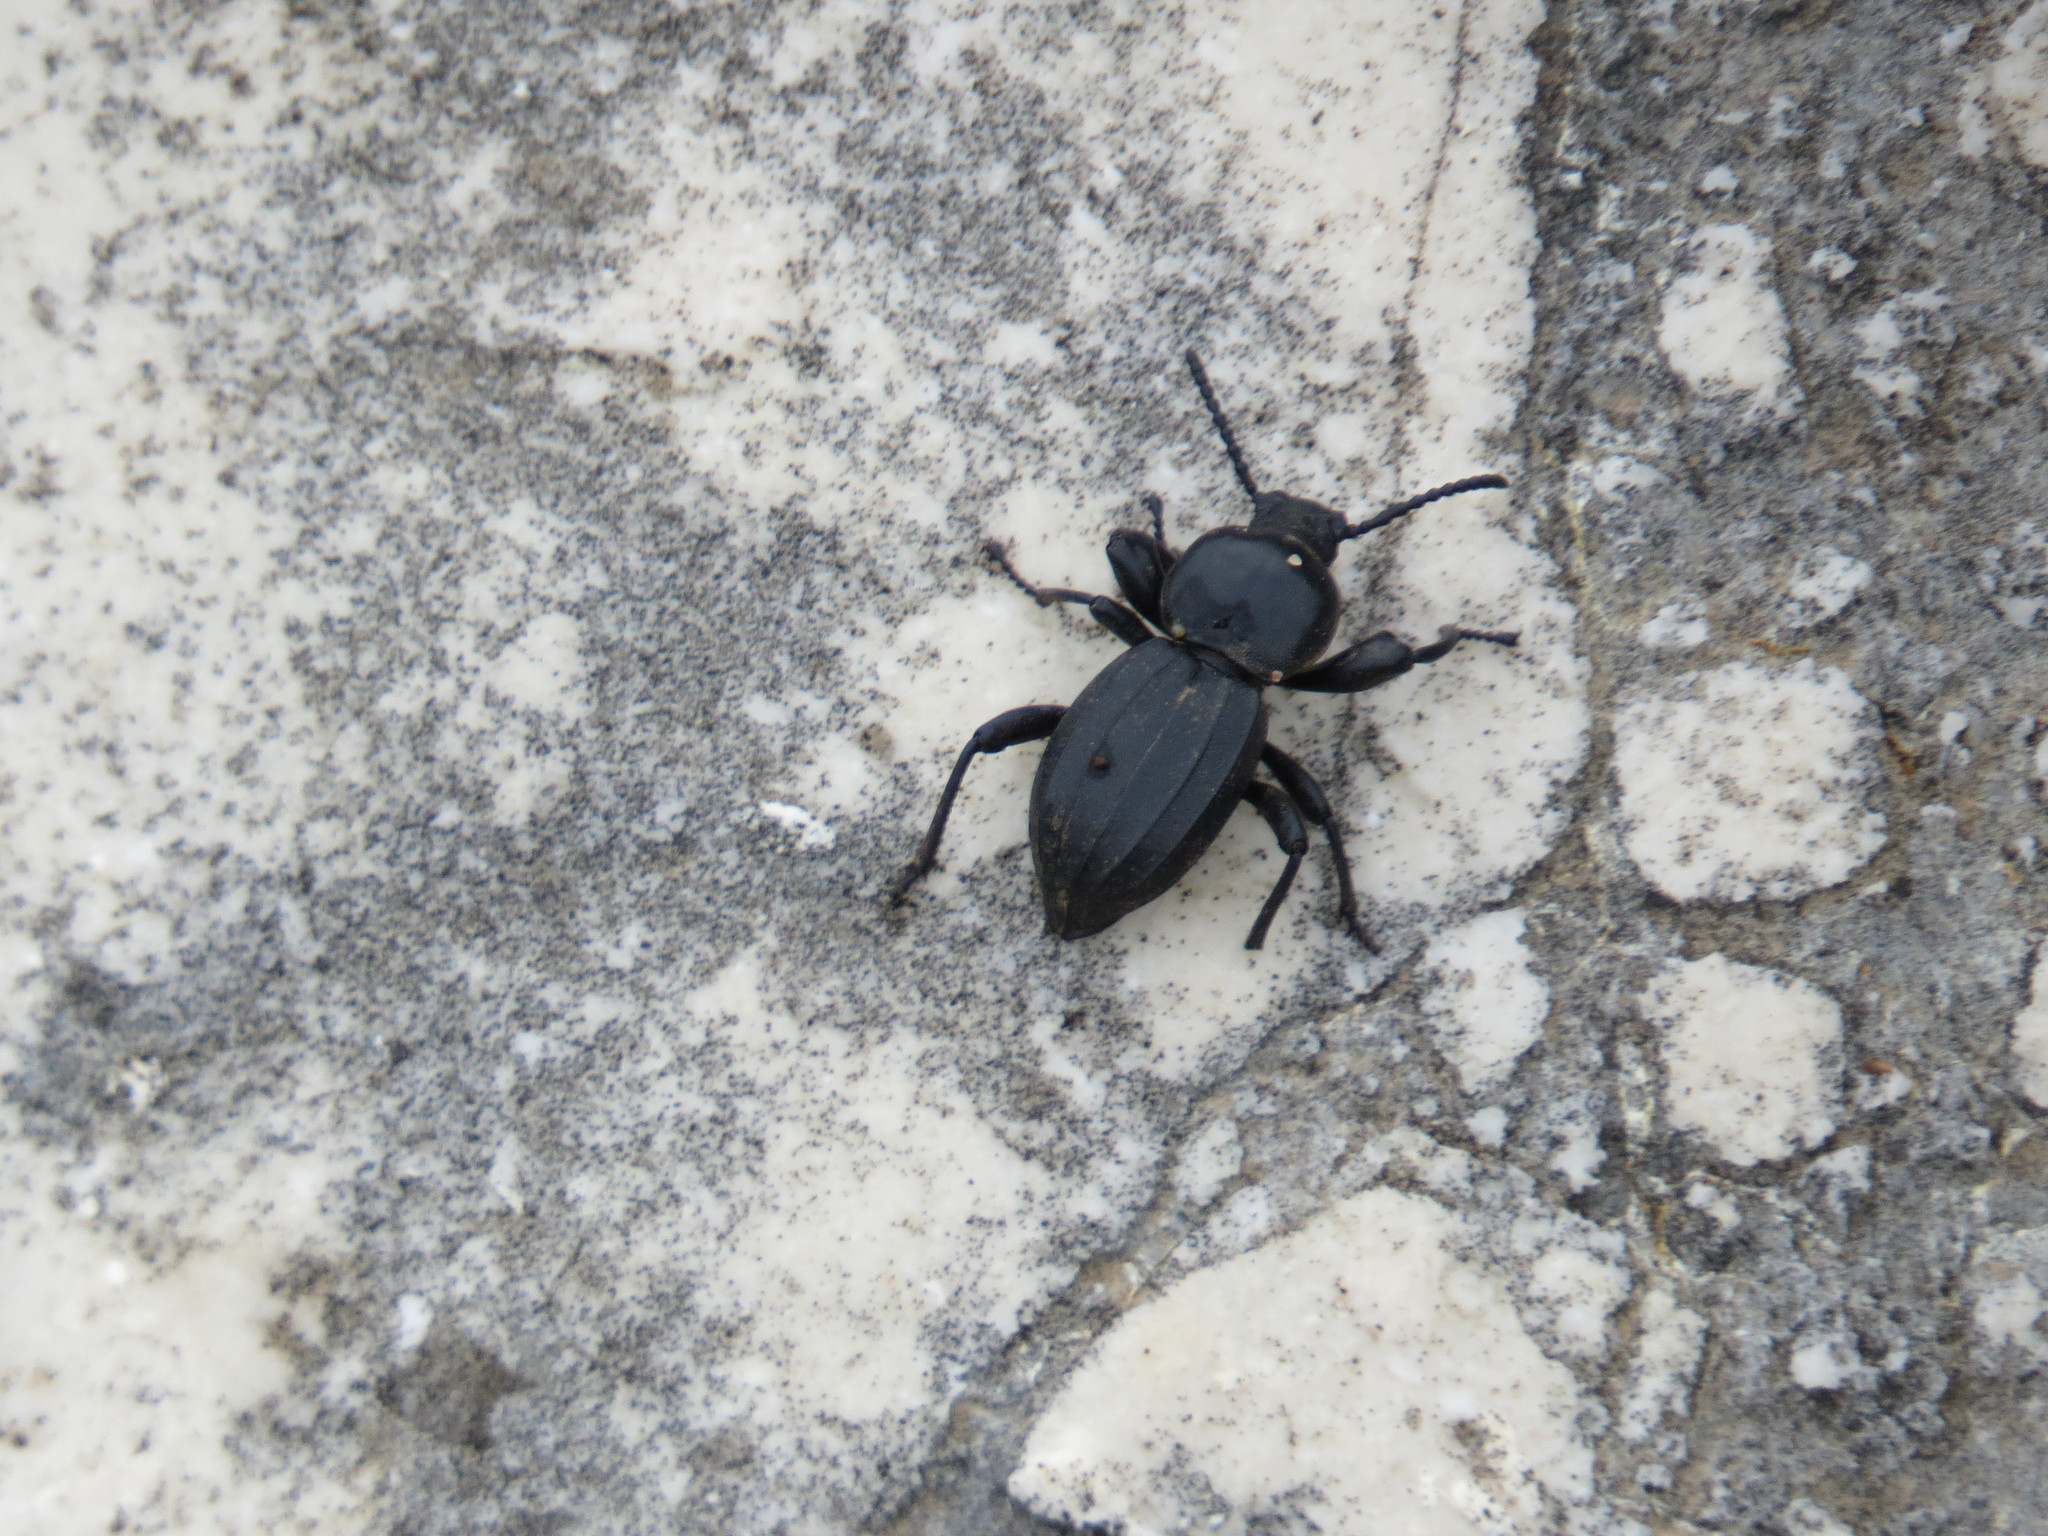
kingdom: Animalia
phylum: Arthropoda
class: Insecta
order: Coleoptera
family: Tenebrionidae
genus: Scaurus
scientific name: Scaurus striatus
